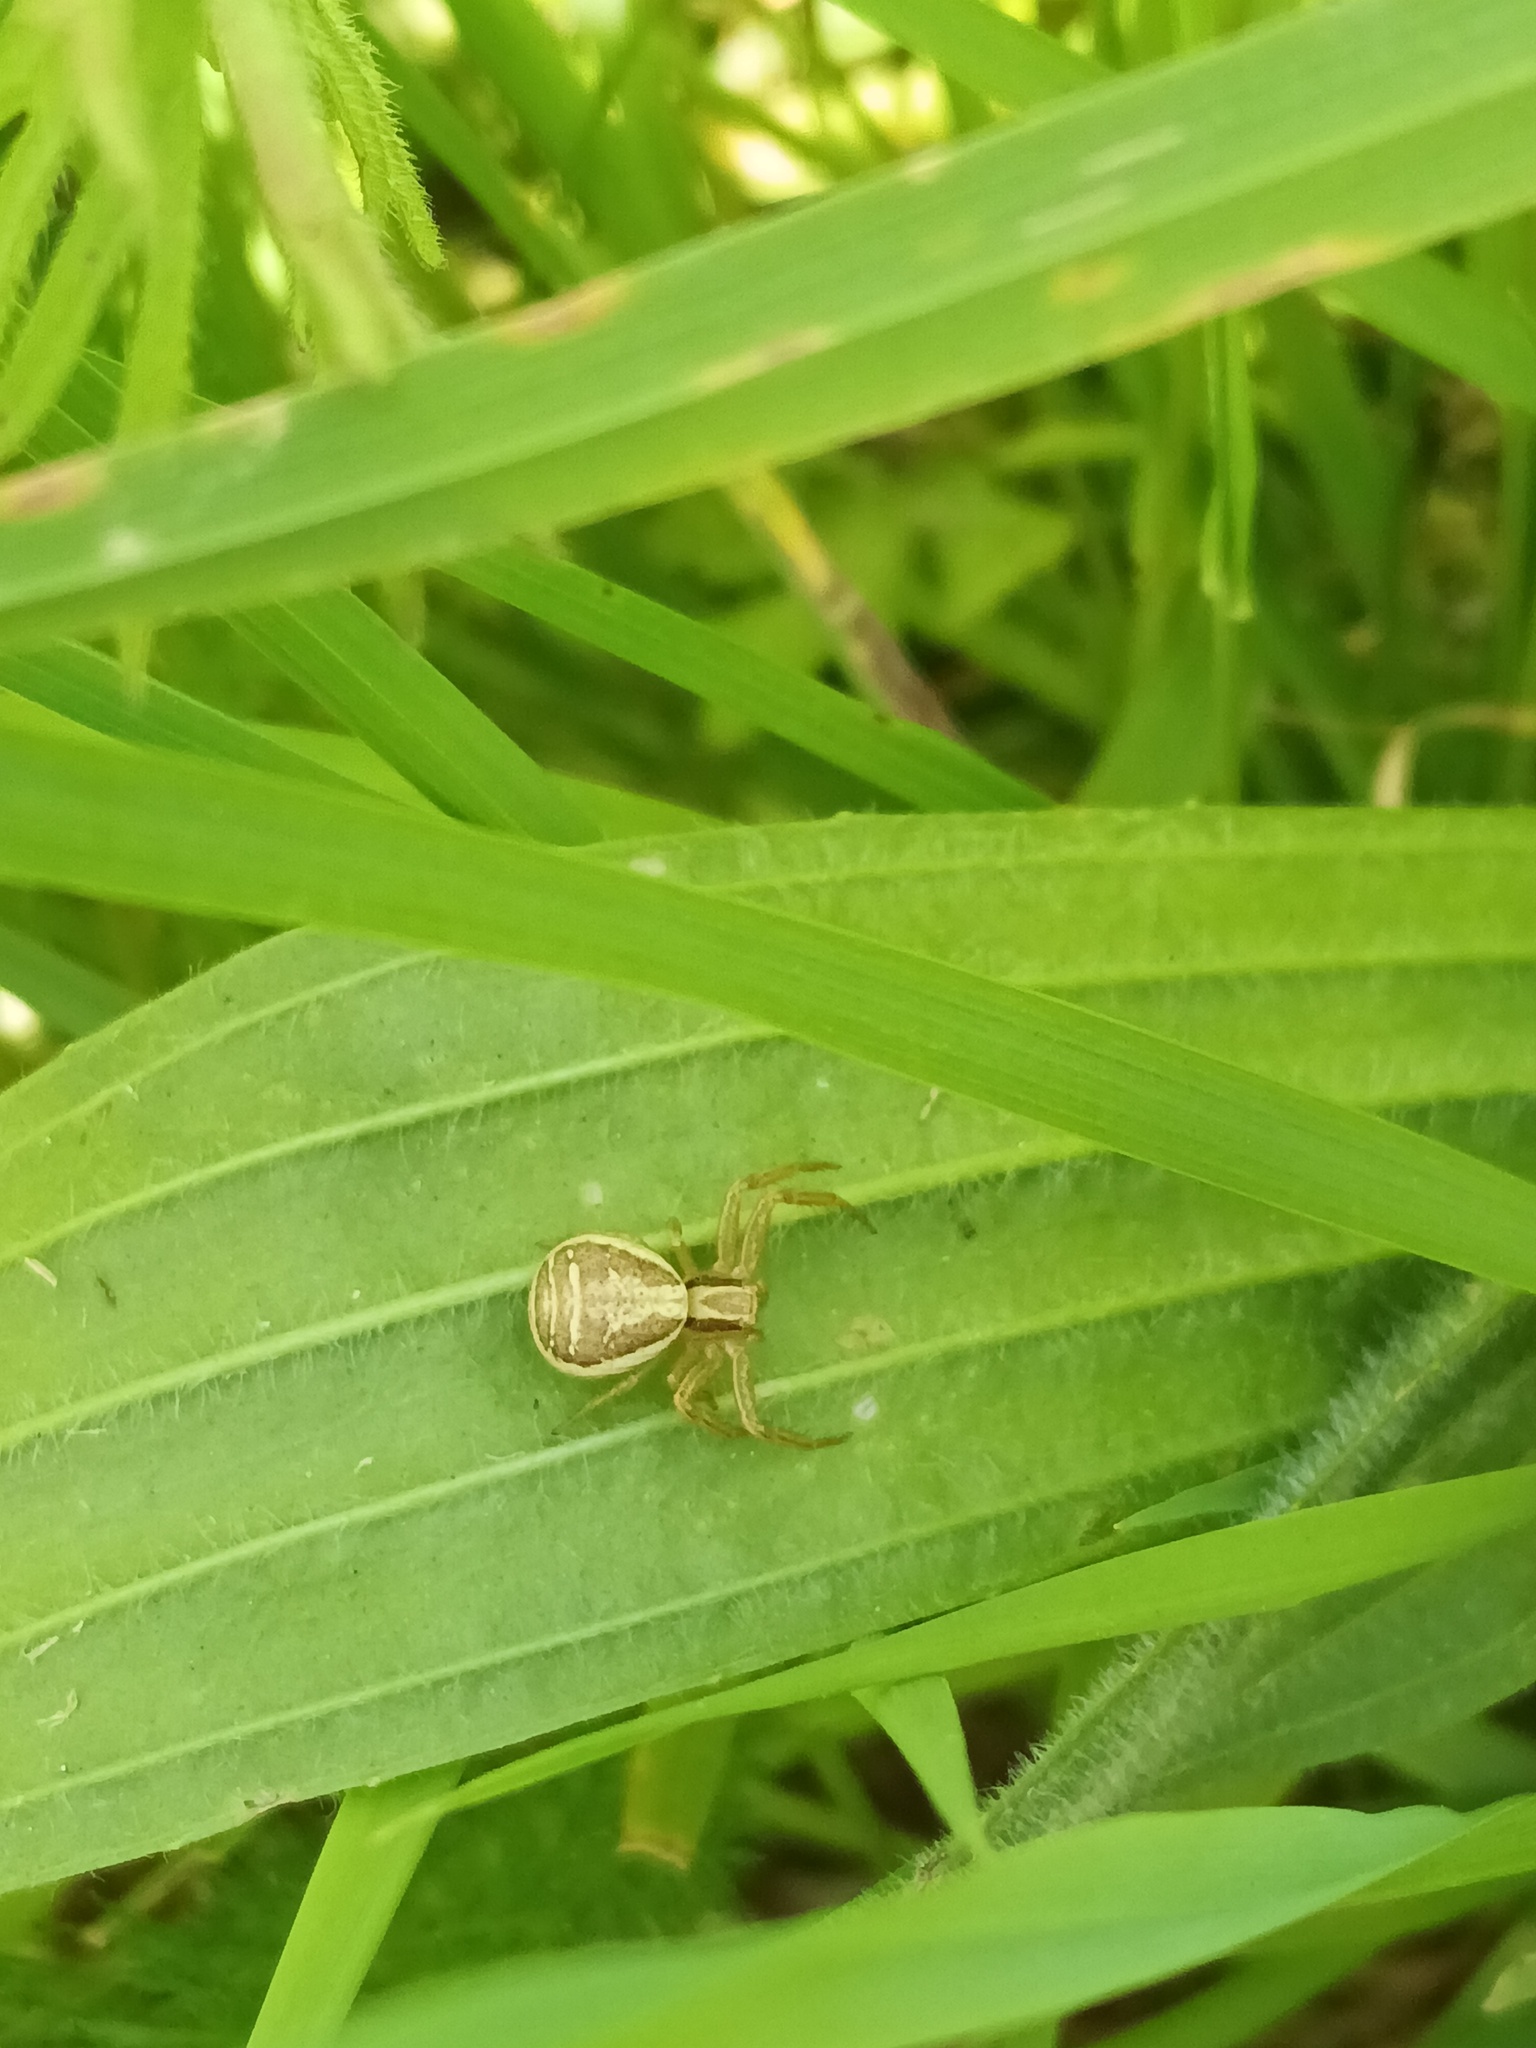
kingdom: Animalia
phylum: Arthropoda
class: Arachnida
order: Araneae
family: Thomisidae
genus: Xysticus
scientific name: Xysticus ulmi
